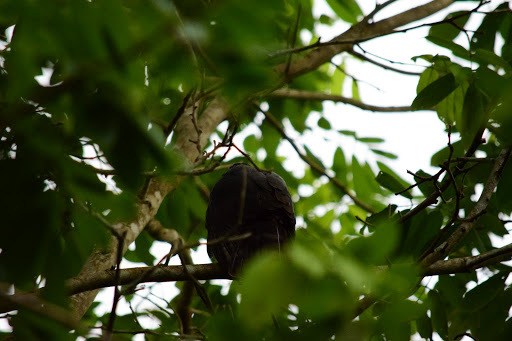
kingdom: Animalia
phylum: Chordata
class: Aves
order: Accipitriformes
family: Accipitridae
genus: Accipiter
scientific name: Accipiter bicolor
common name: Bicolored hawk
